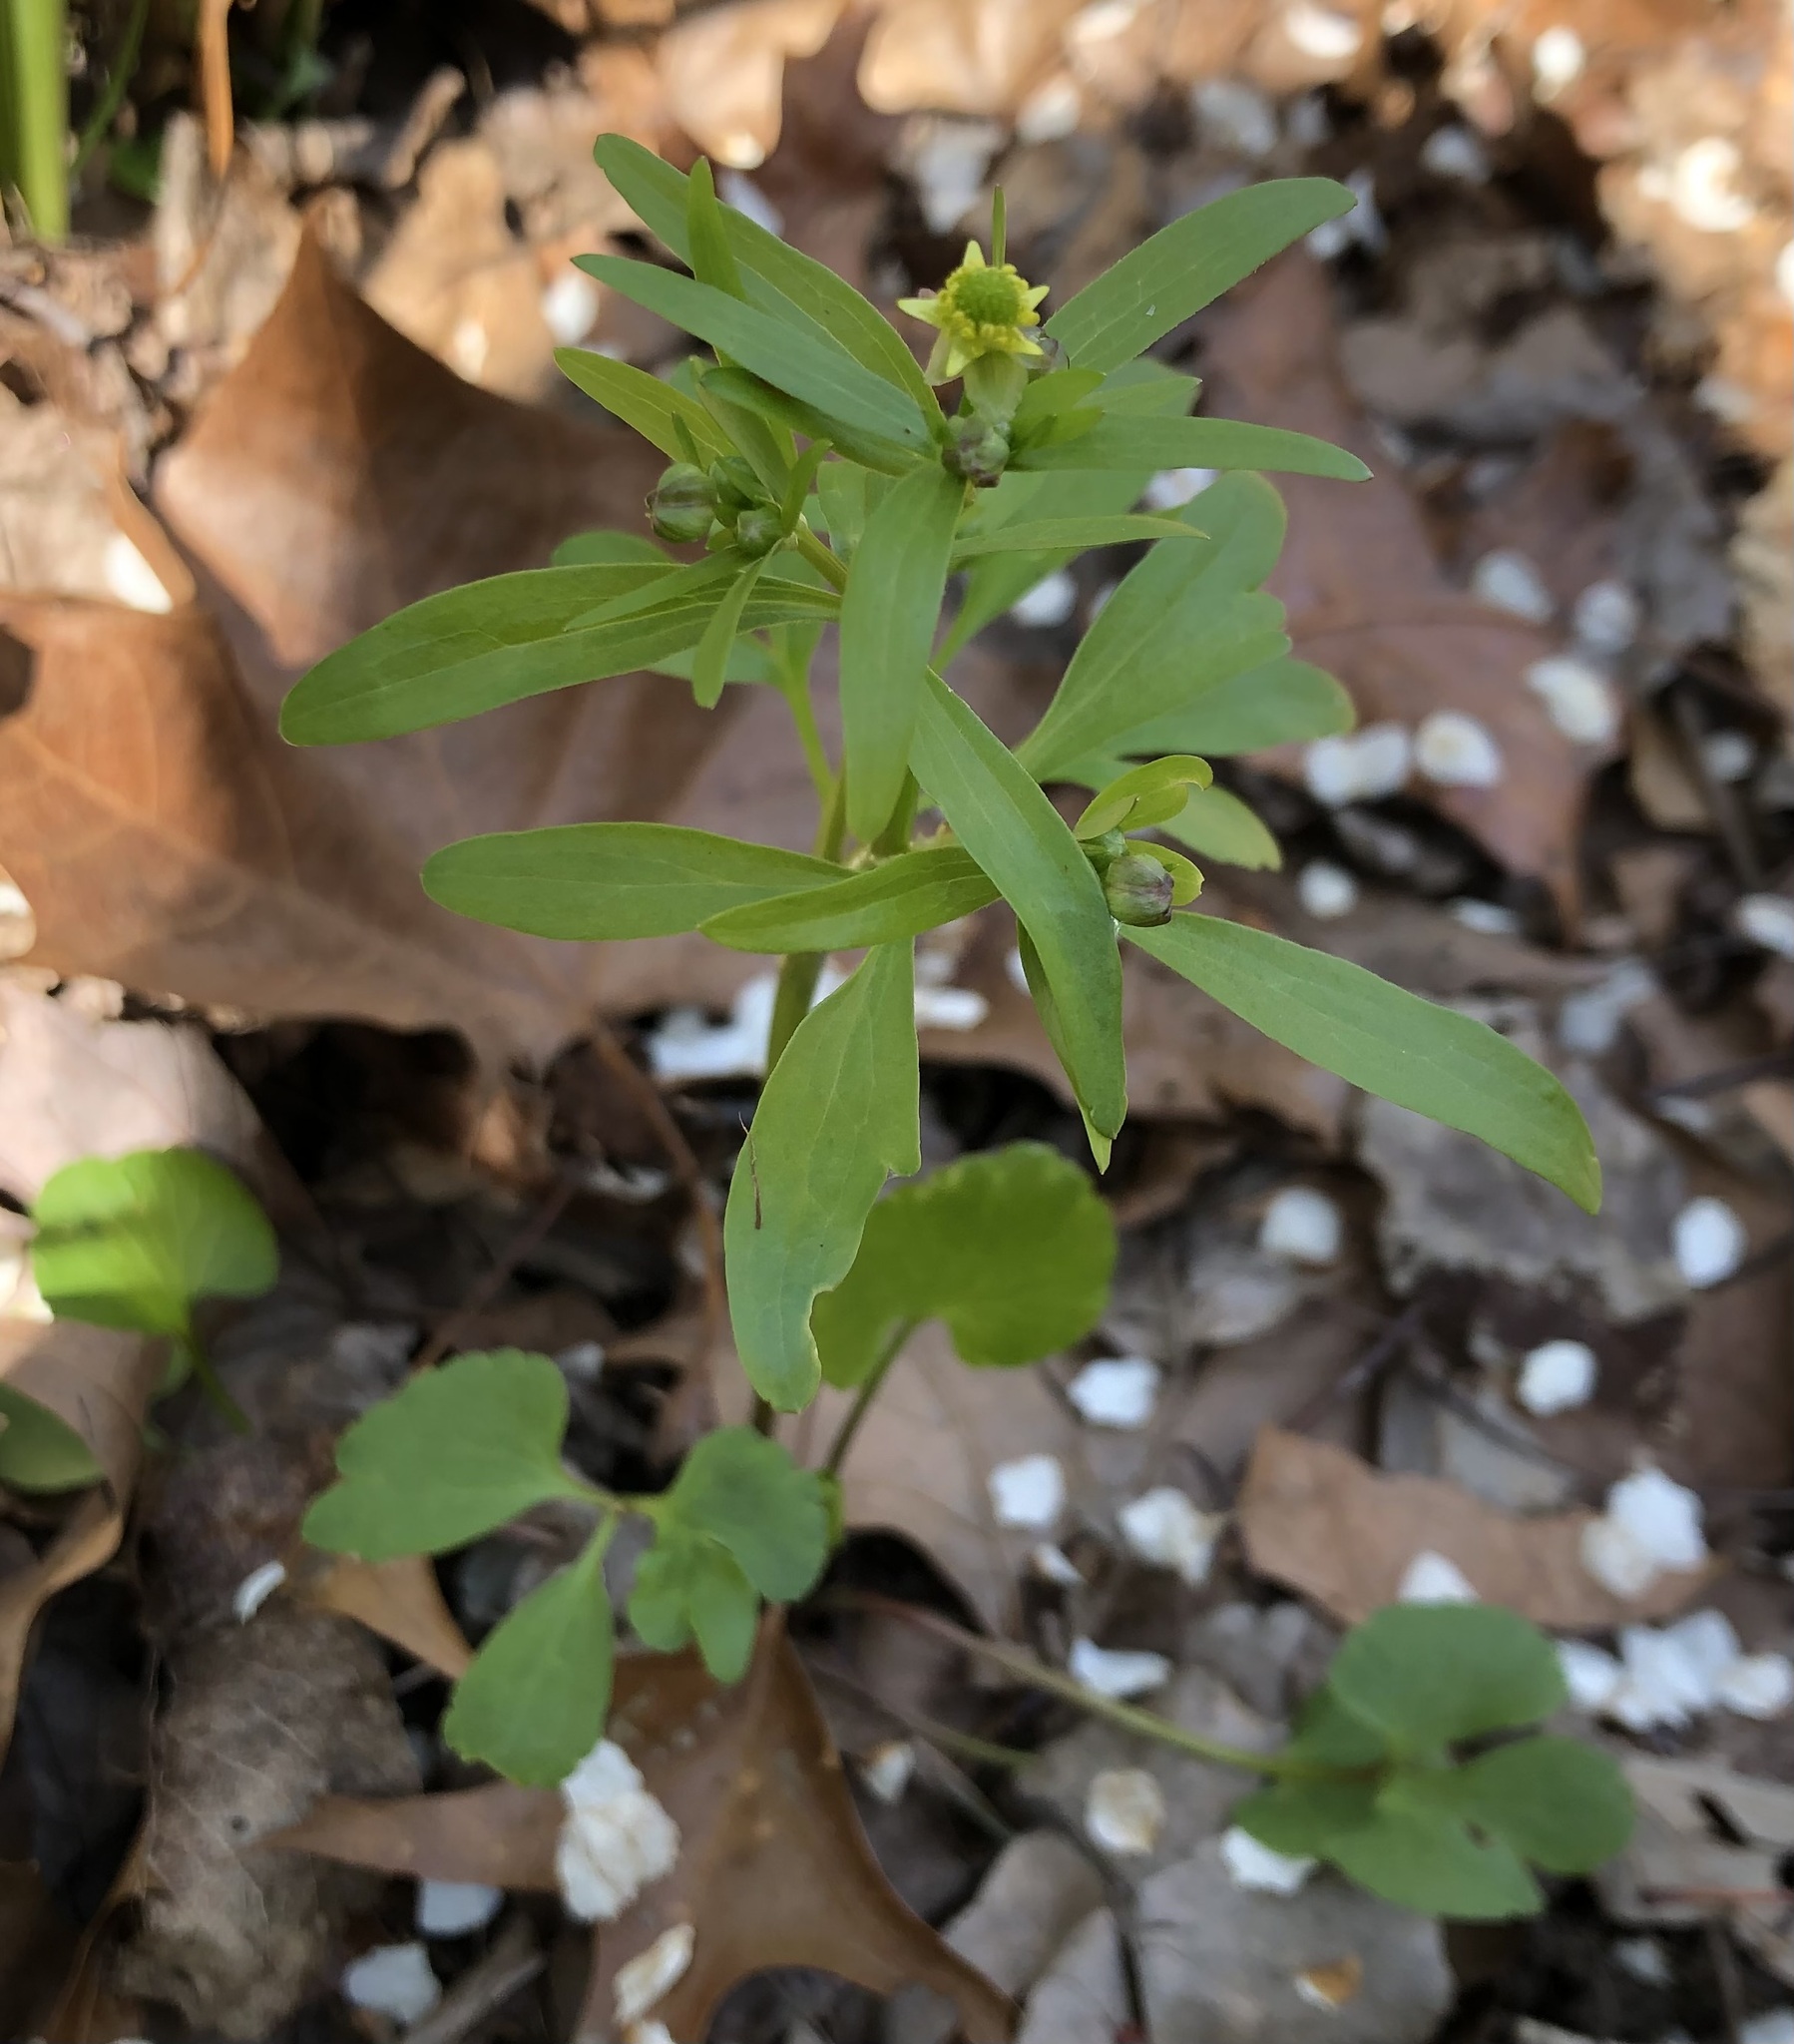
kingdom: Plantae
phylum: Tracheophyta
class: Magnoliopsida
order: Ranunculales
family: Ranunculaceae
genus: Ranunculus
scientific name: Ranunculus abortivus
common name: Early wood buttercup
